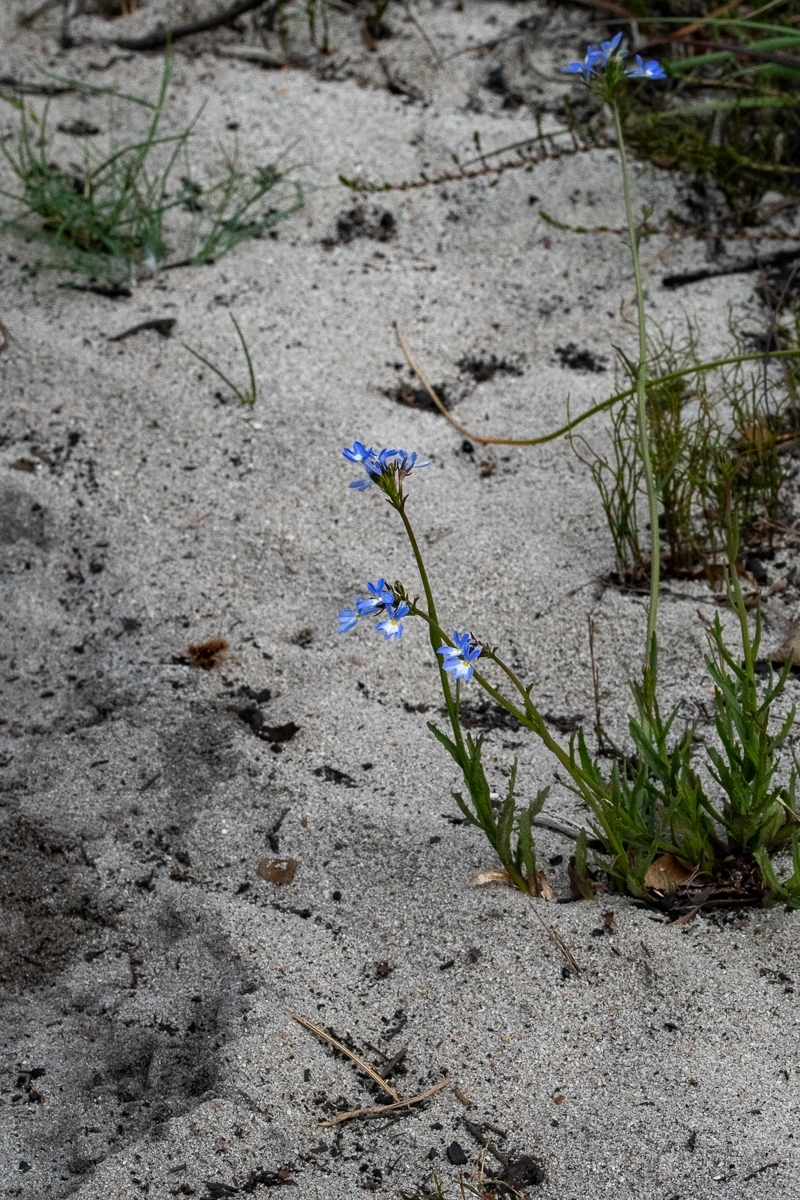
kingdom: Plantae
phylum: Tracheophyta
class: Magnoliopsida
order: Asterales
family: Campanulaceae
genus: Lobelia
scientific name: Lobelia comosa
